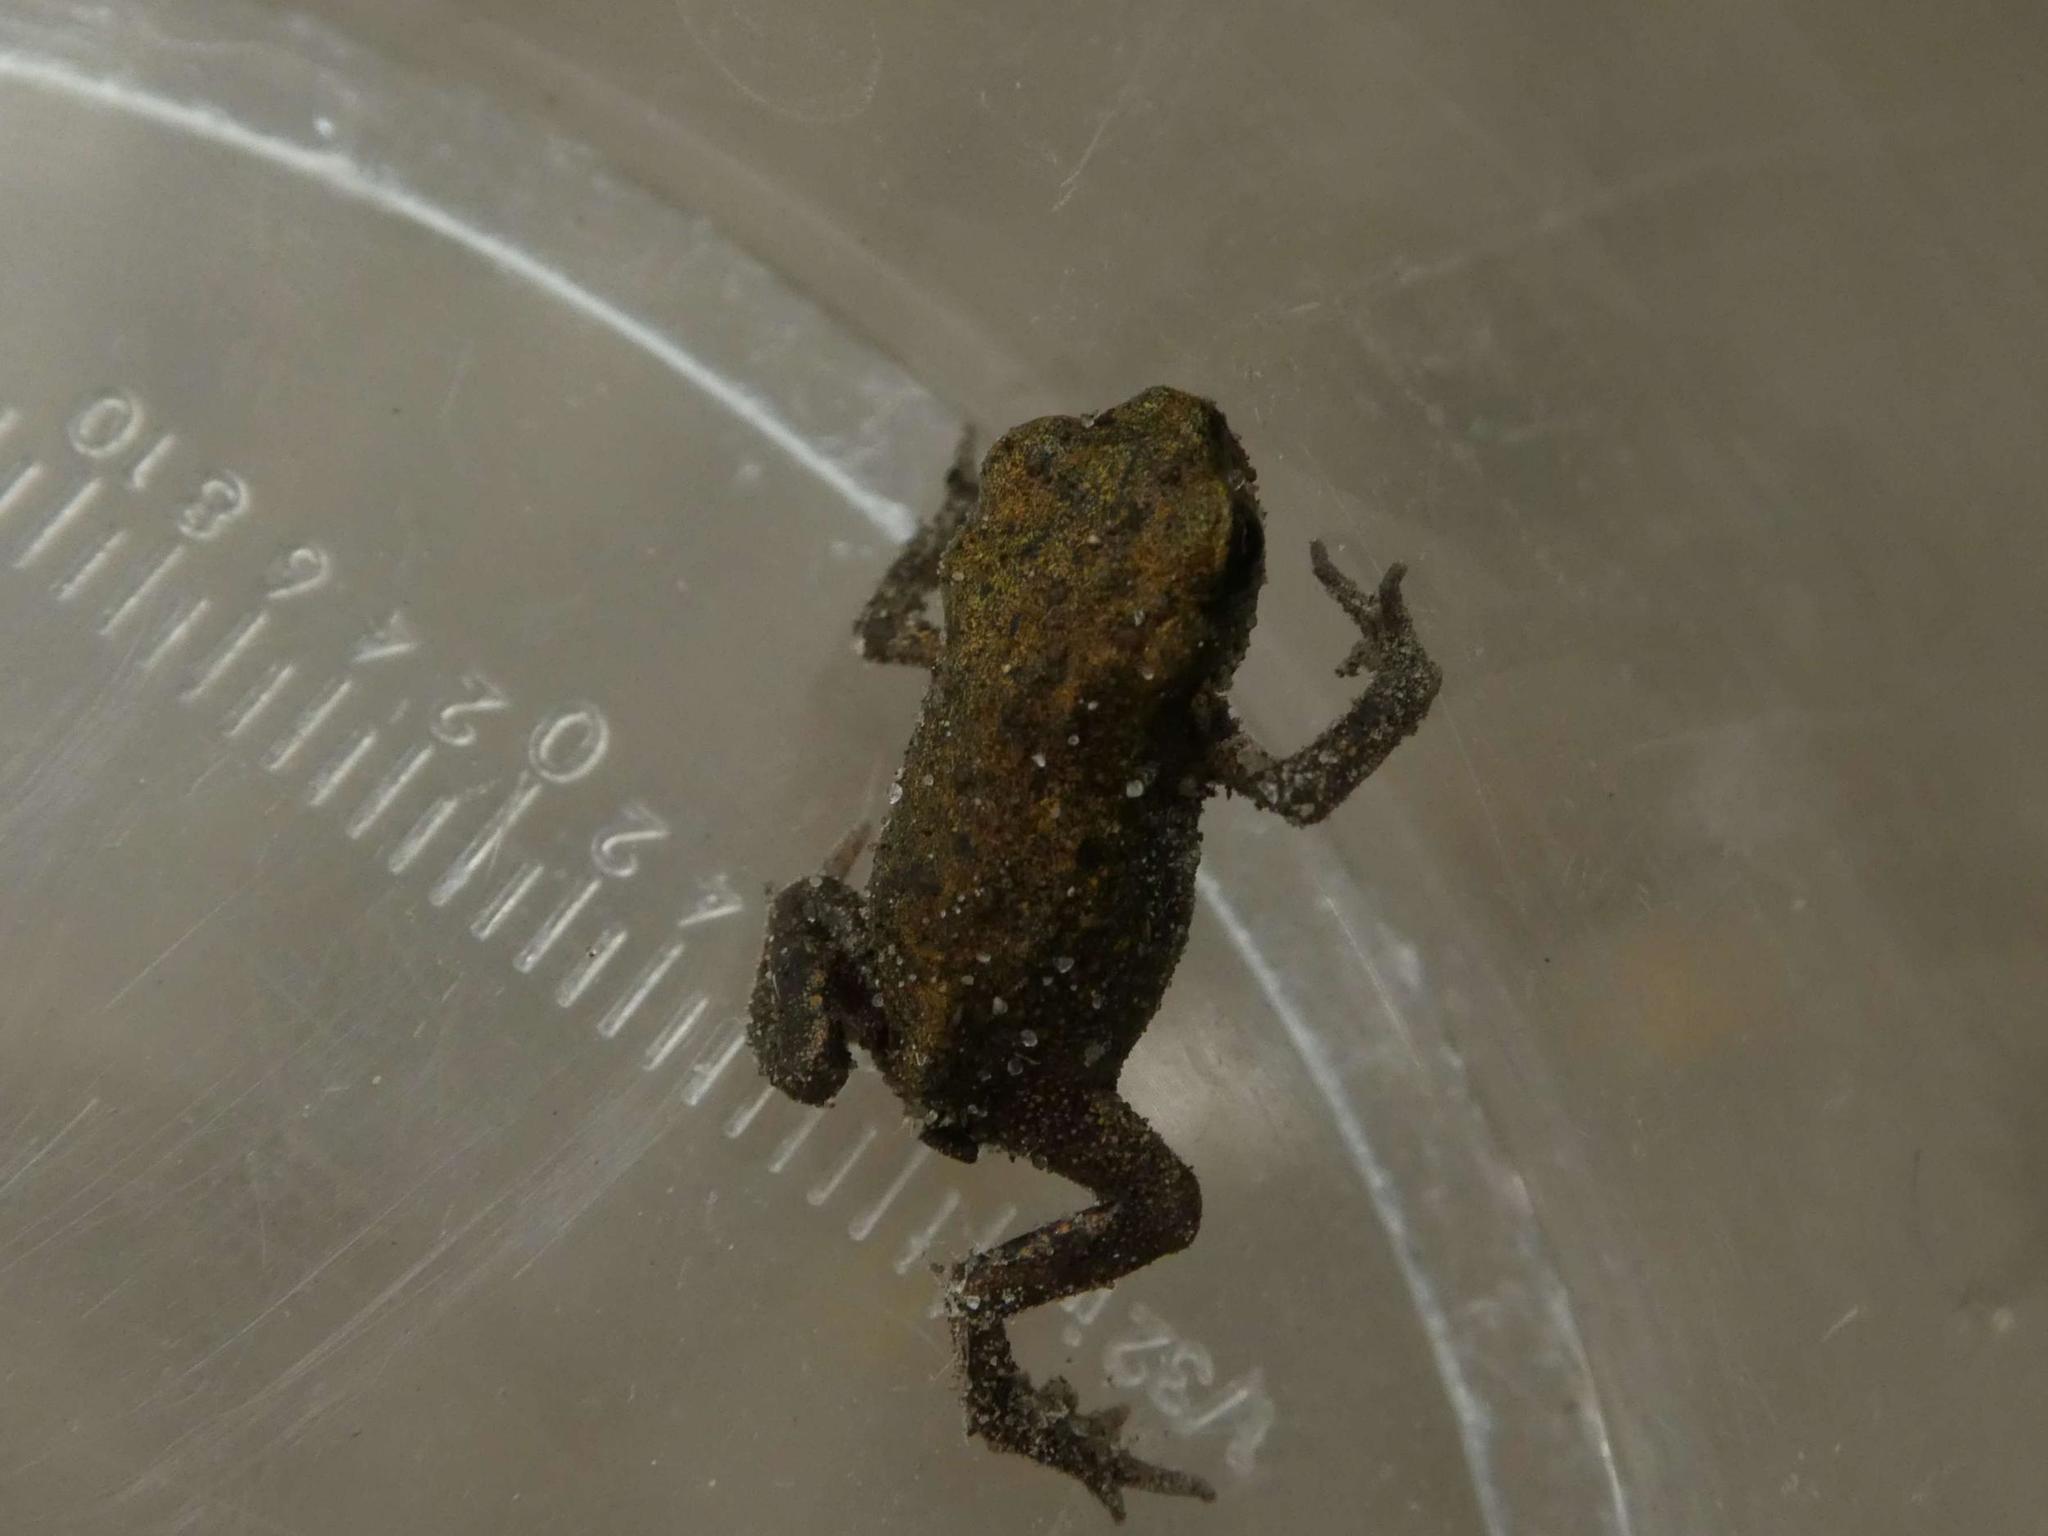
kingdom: Animalia
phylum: Chordata
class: Amphibia
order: Anura
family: Bufonidae
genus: Bufo
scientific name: Bufo bufo
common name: Common toad
